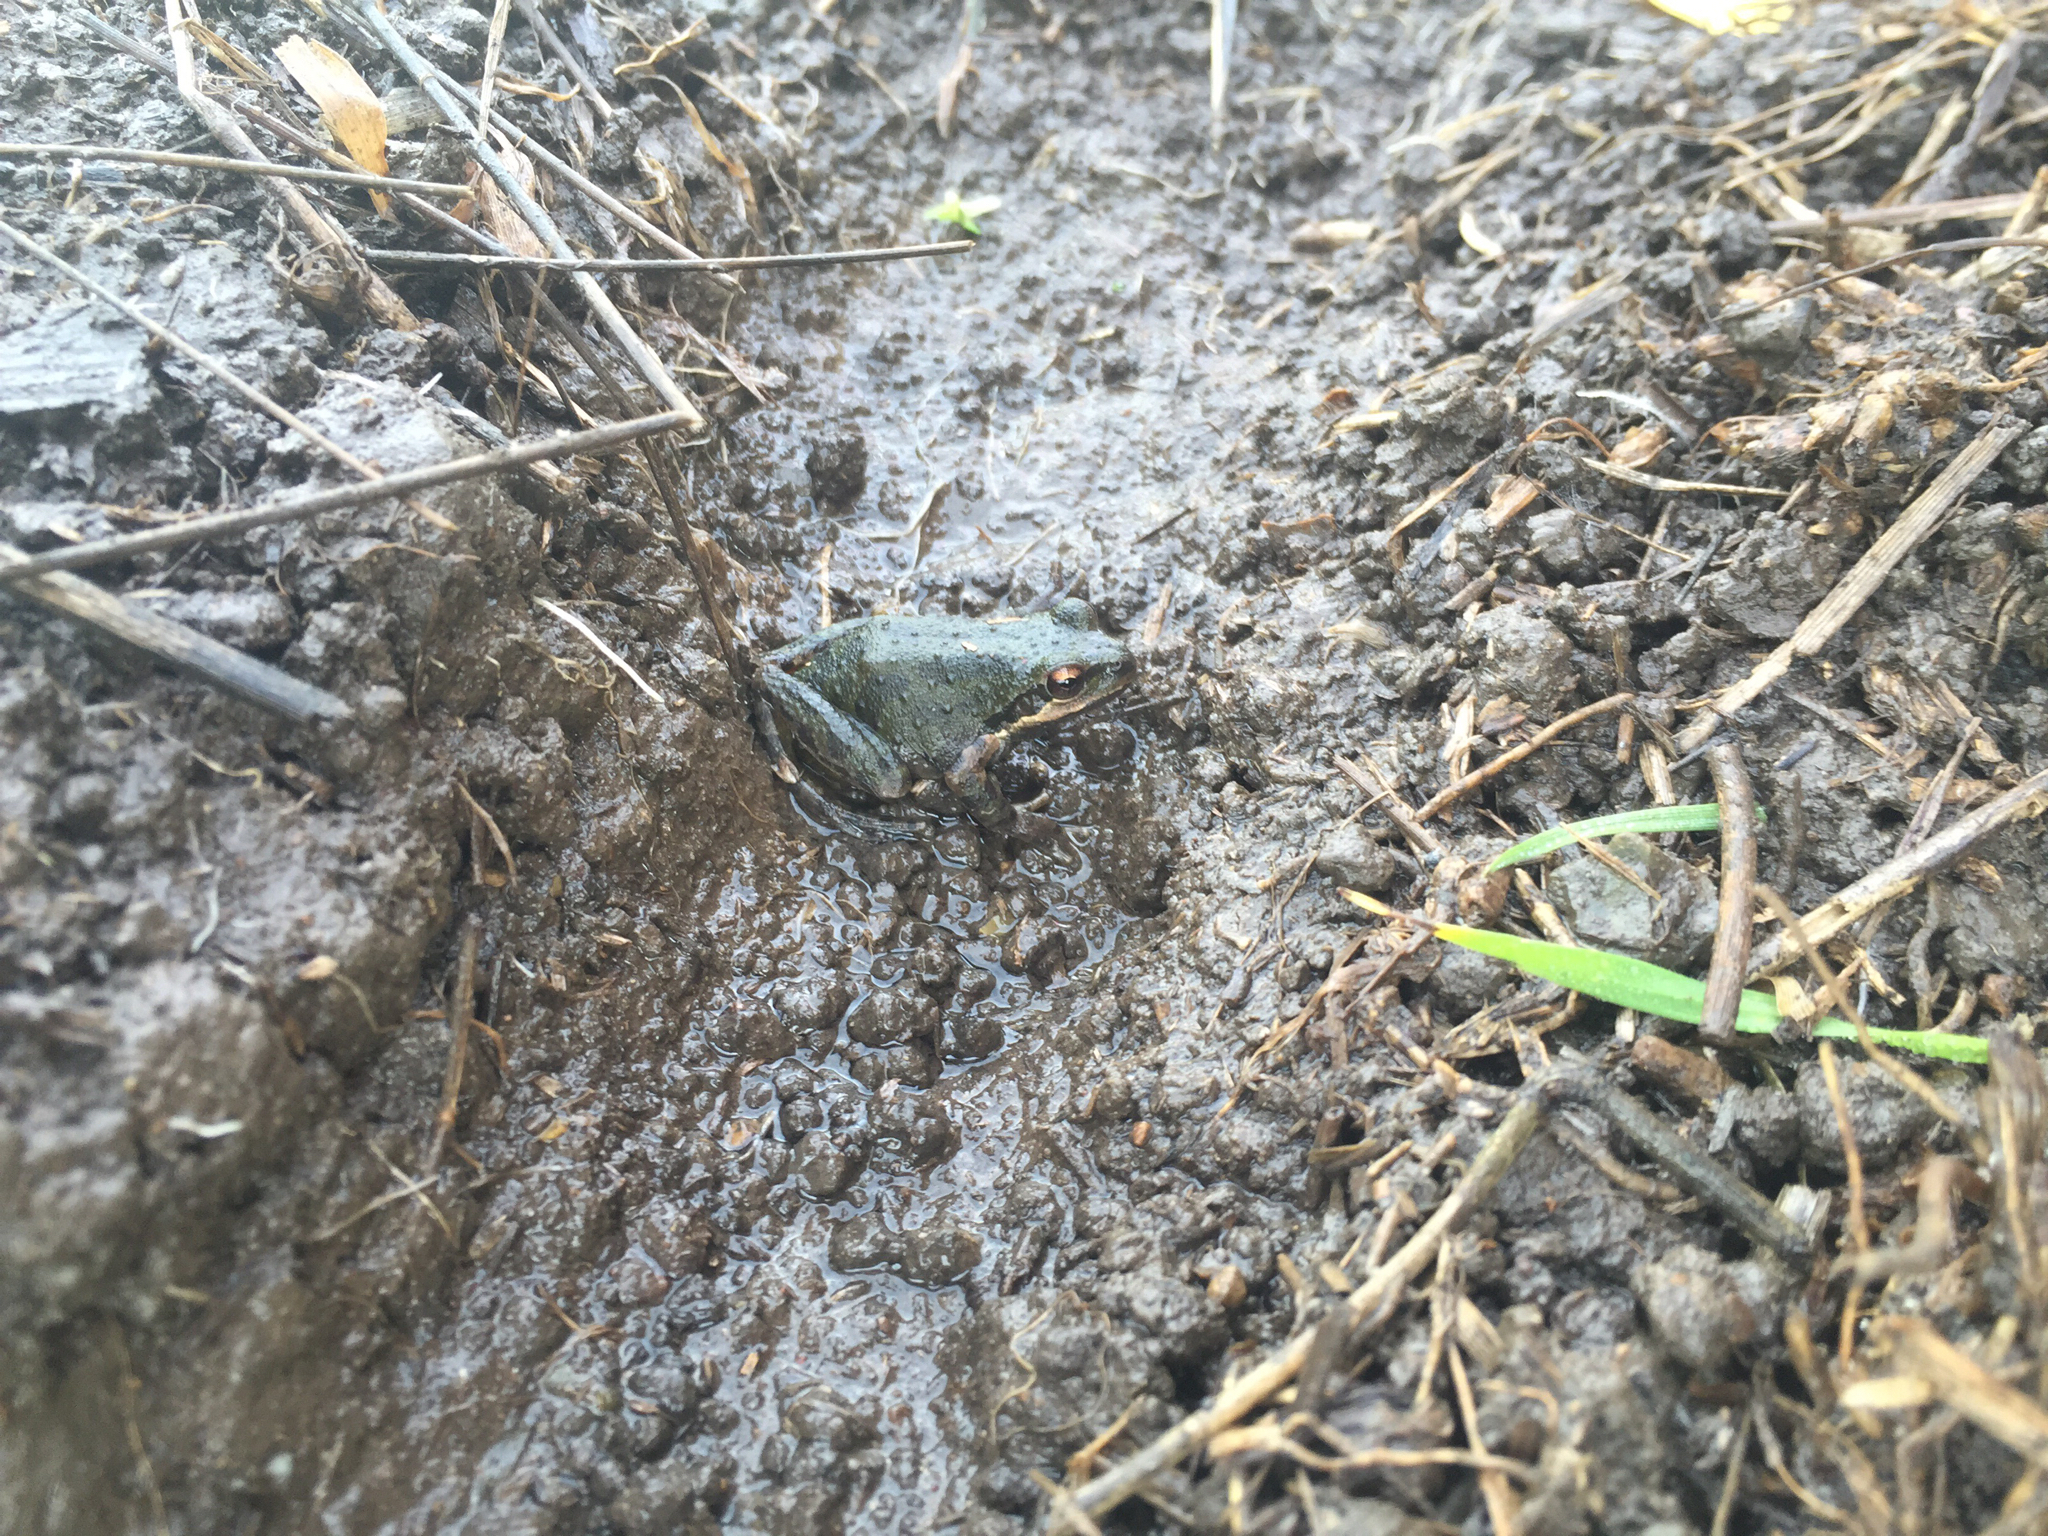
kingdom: Animalia
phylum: Chordata
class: Amphibia
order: Anura
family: Hylidae
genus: Pseudacris
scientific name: Pseudacris regilla
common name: Pacific chorus frog
